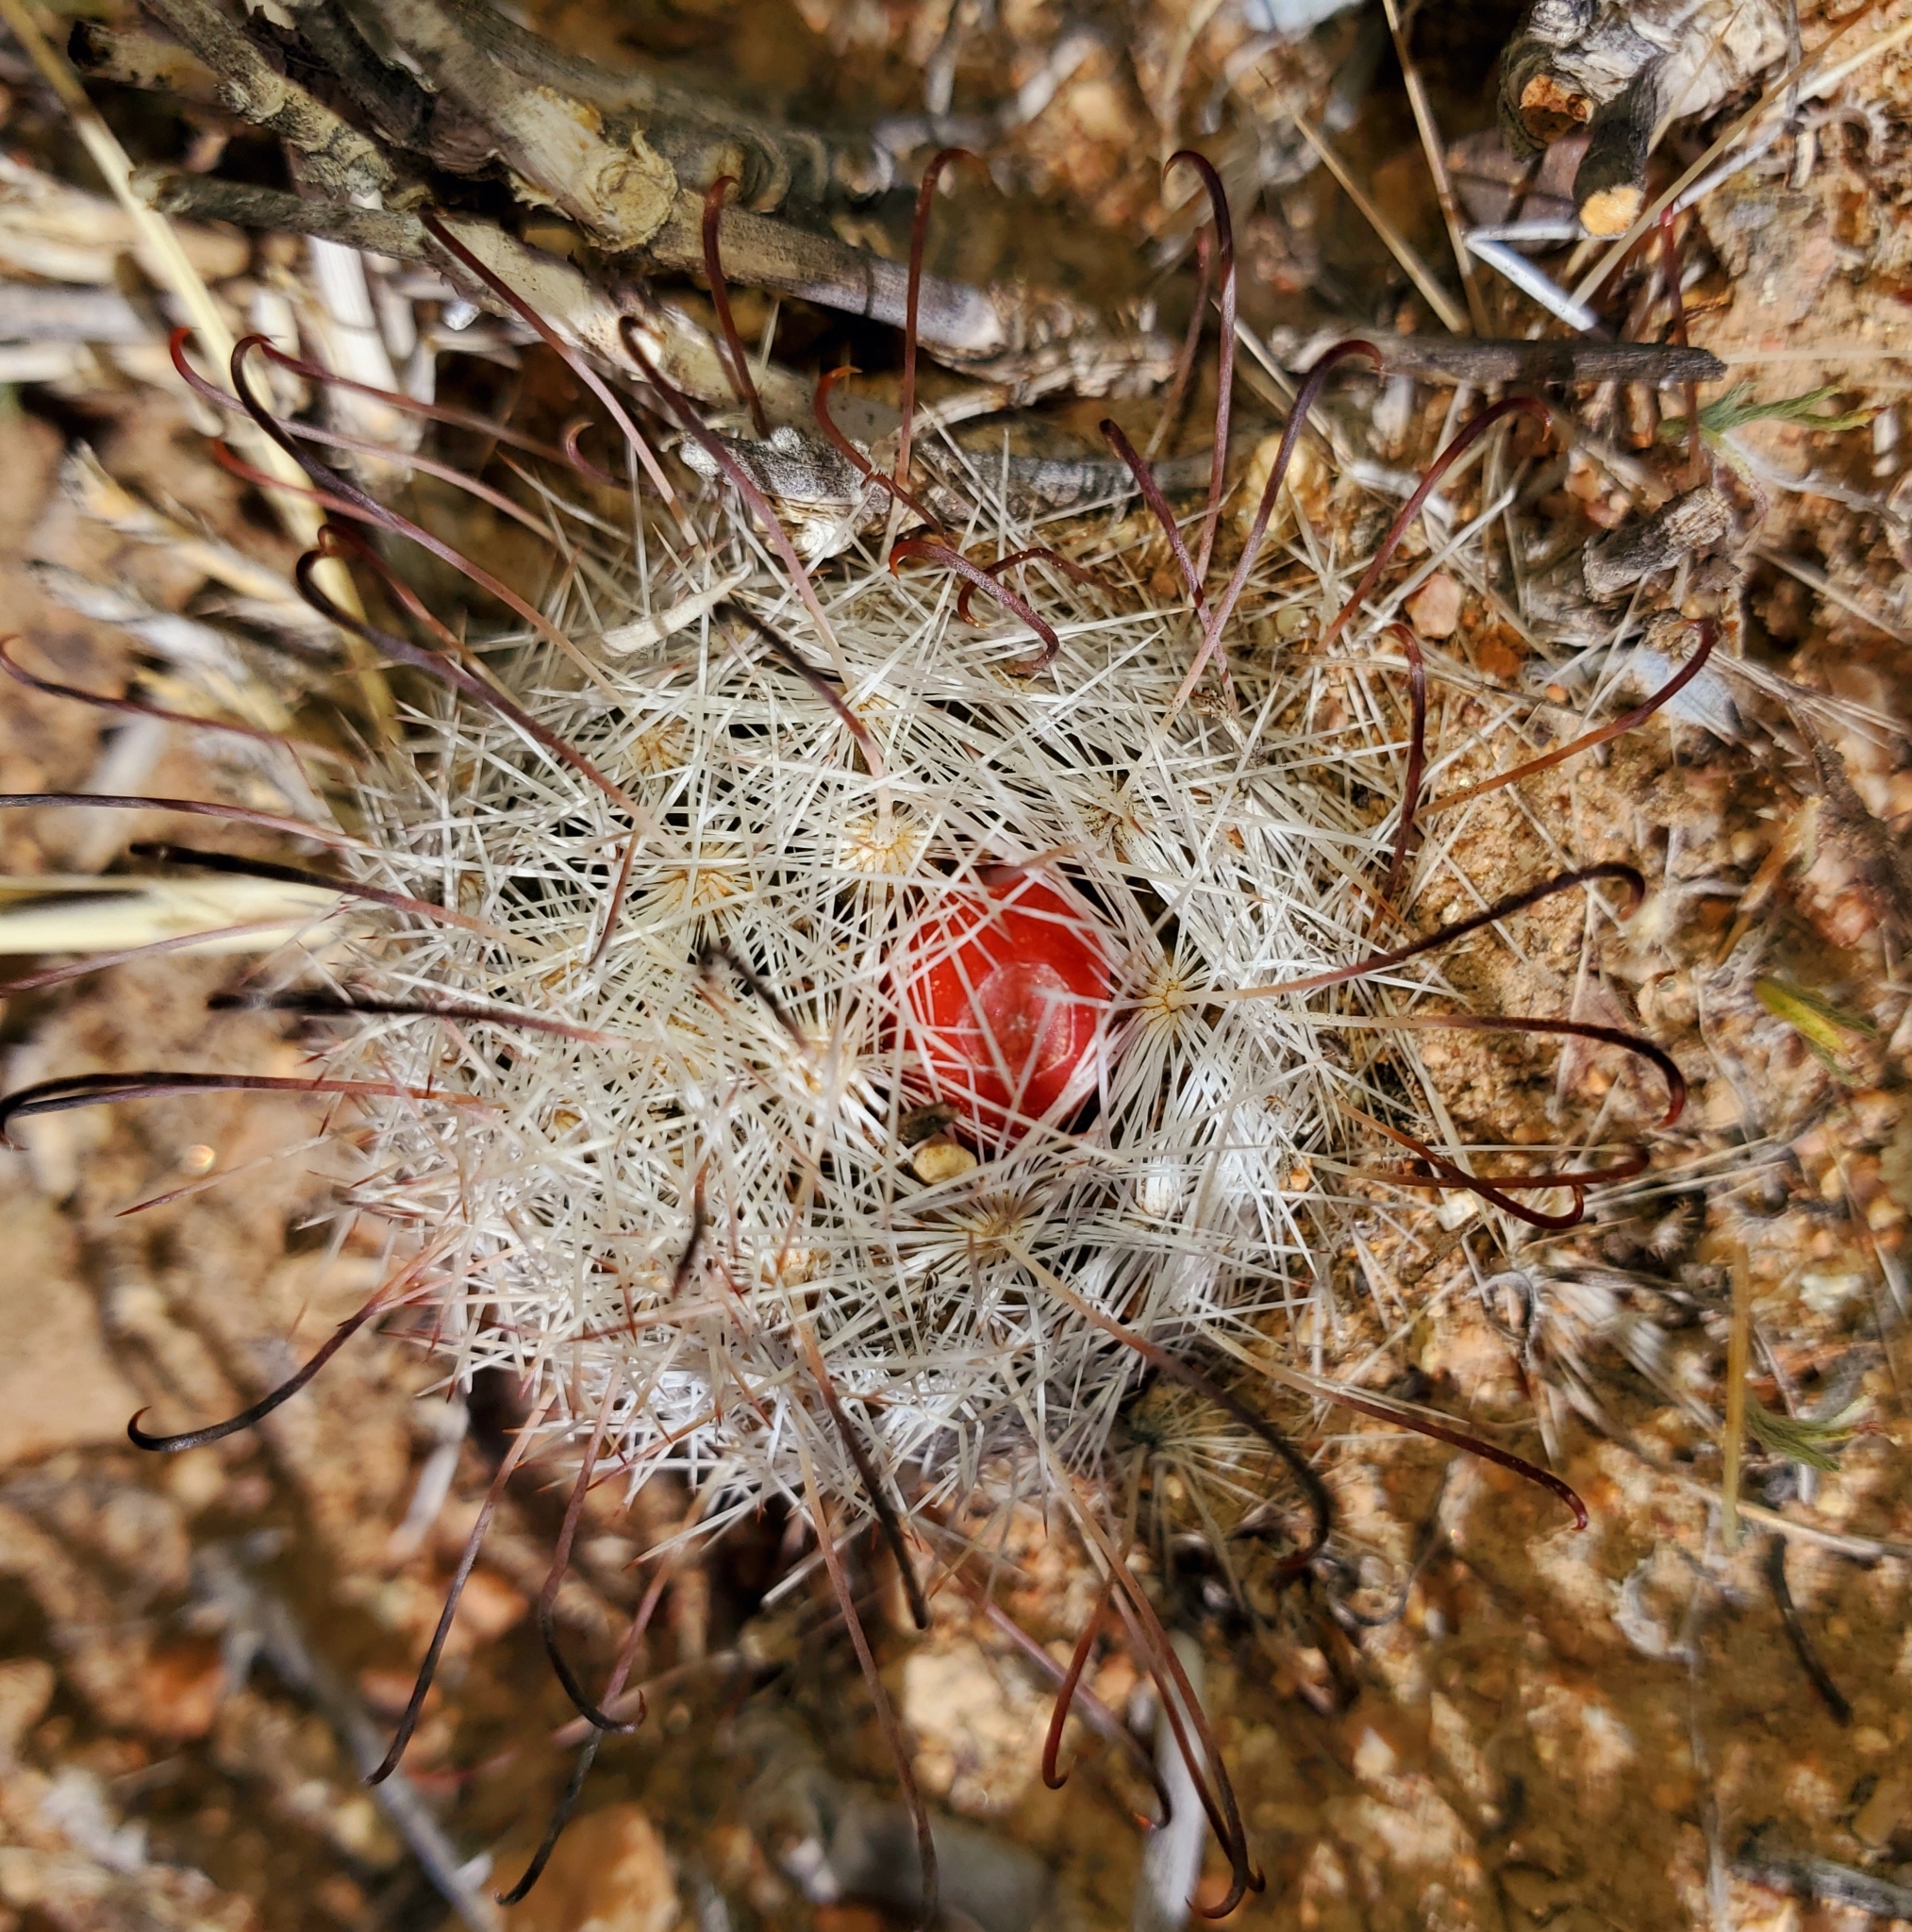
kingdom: Plantae
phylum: Tracheophyta
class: Magnoliopsida
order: Caryophyllales
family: Cactaceae
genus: Cochemiea
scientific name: Cochemiea tetrancistra
